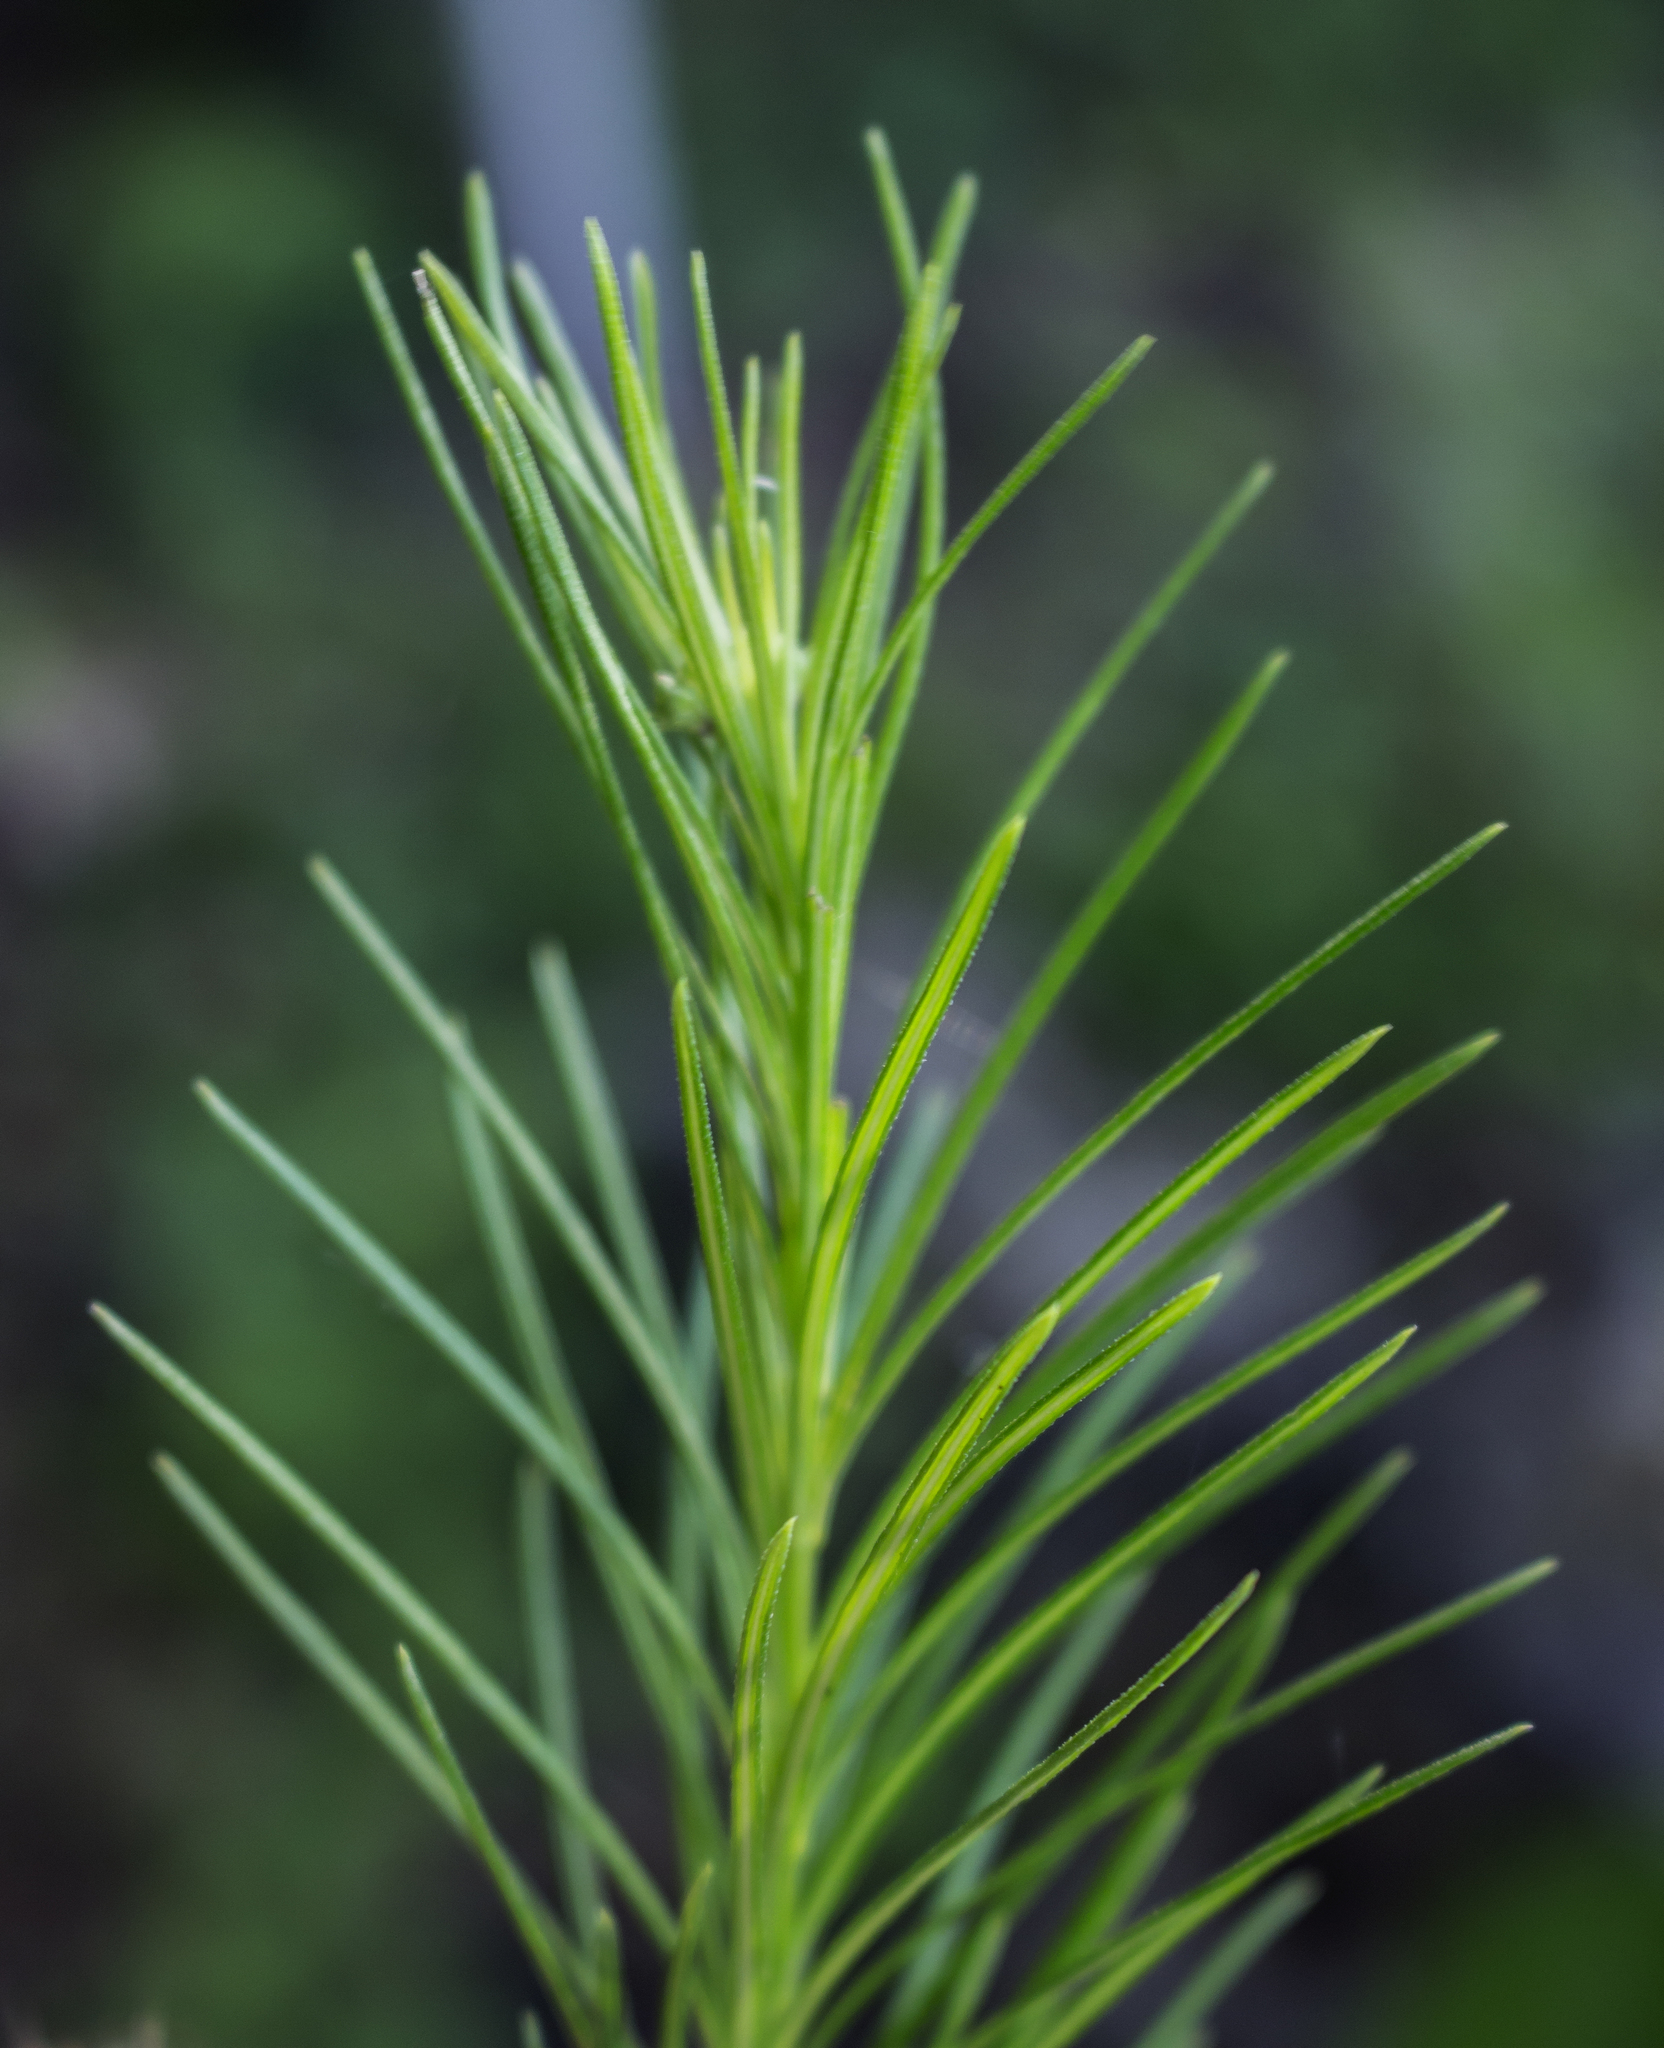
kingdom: Plantae
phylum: Tracheophyta
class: Magnoliopsida
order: Gentianales
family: Apocynaceae
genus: Asclepias
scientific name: Asclepias verticillata
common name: Eastern whorled milkweed
